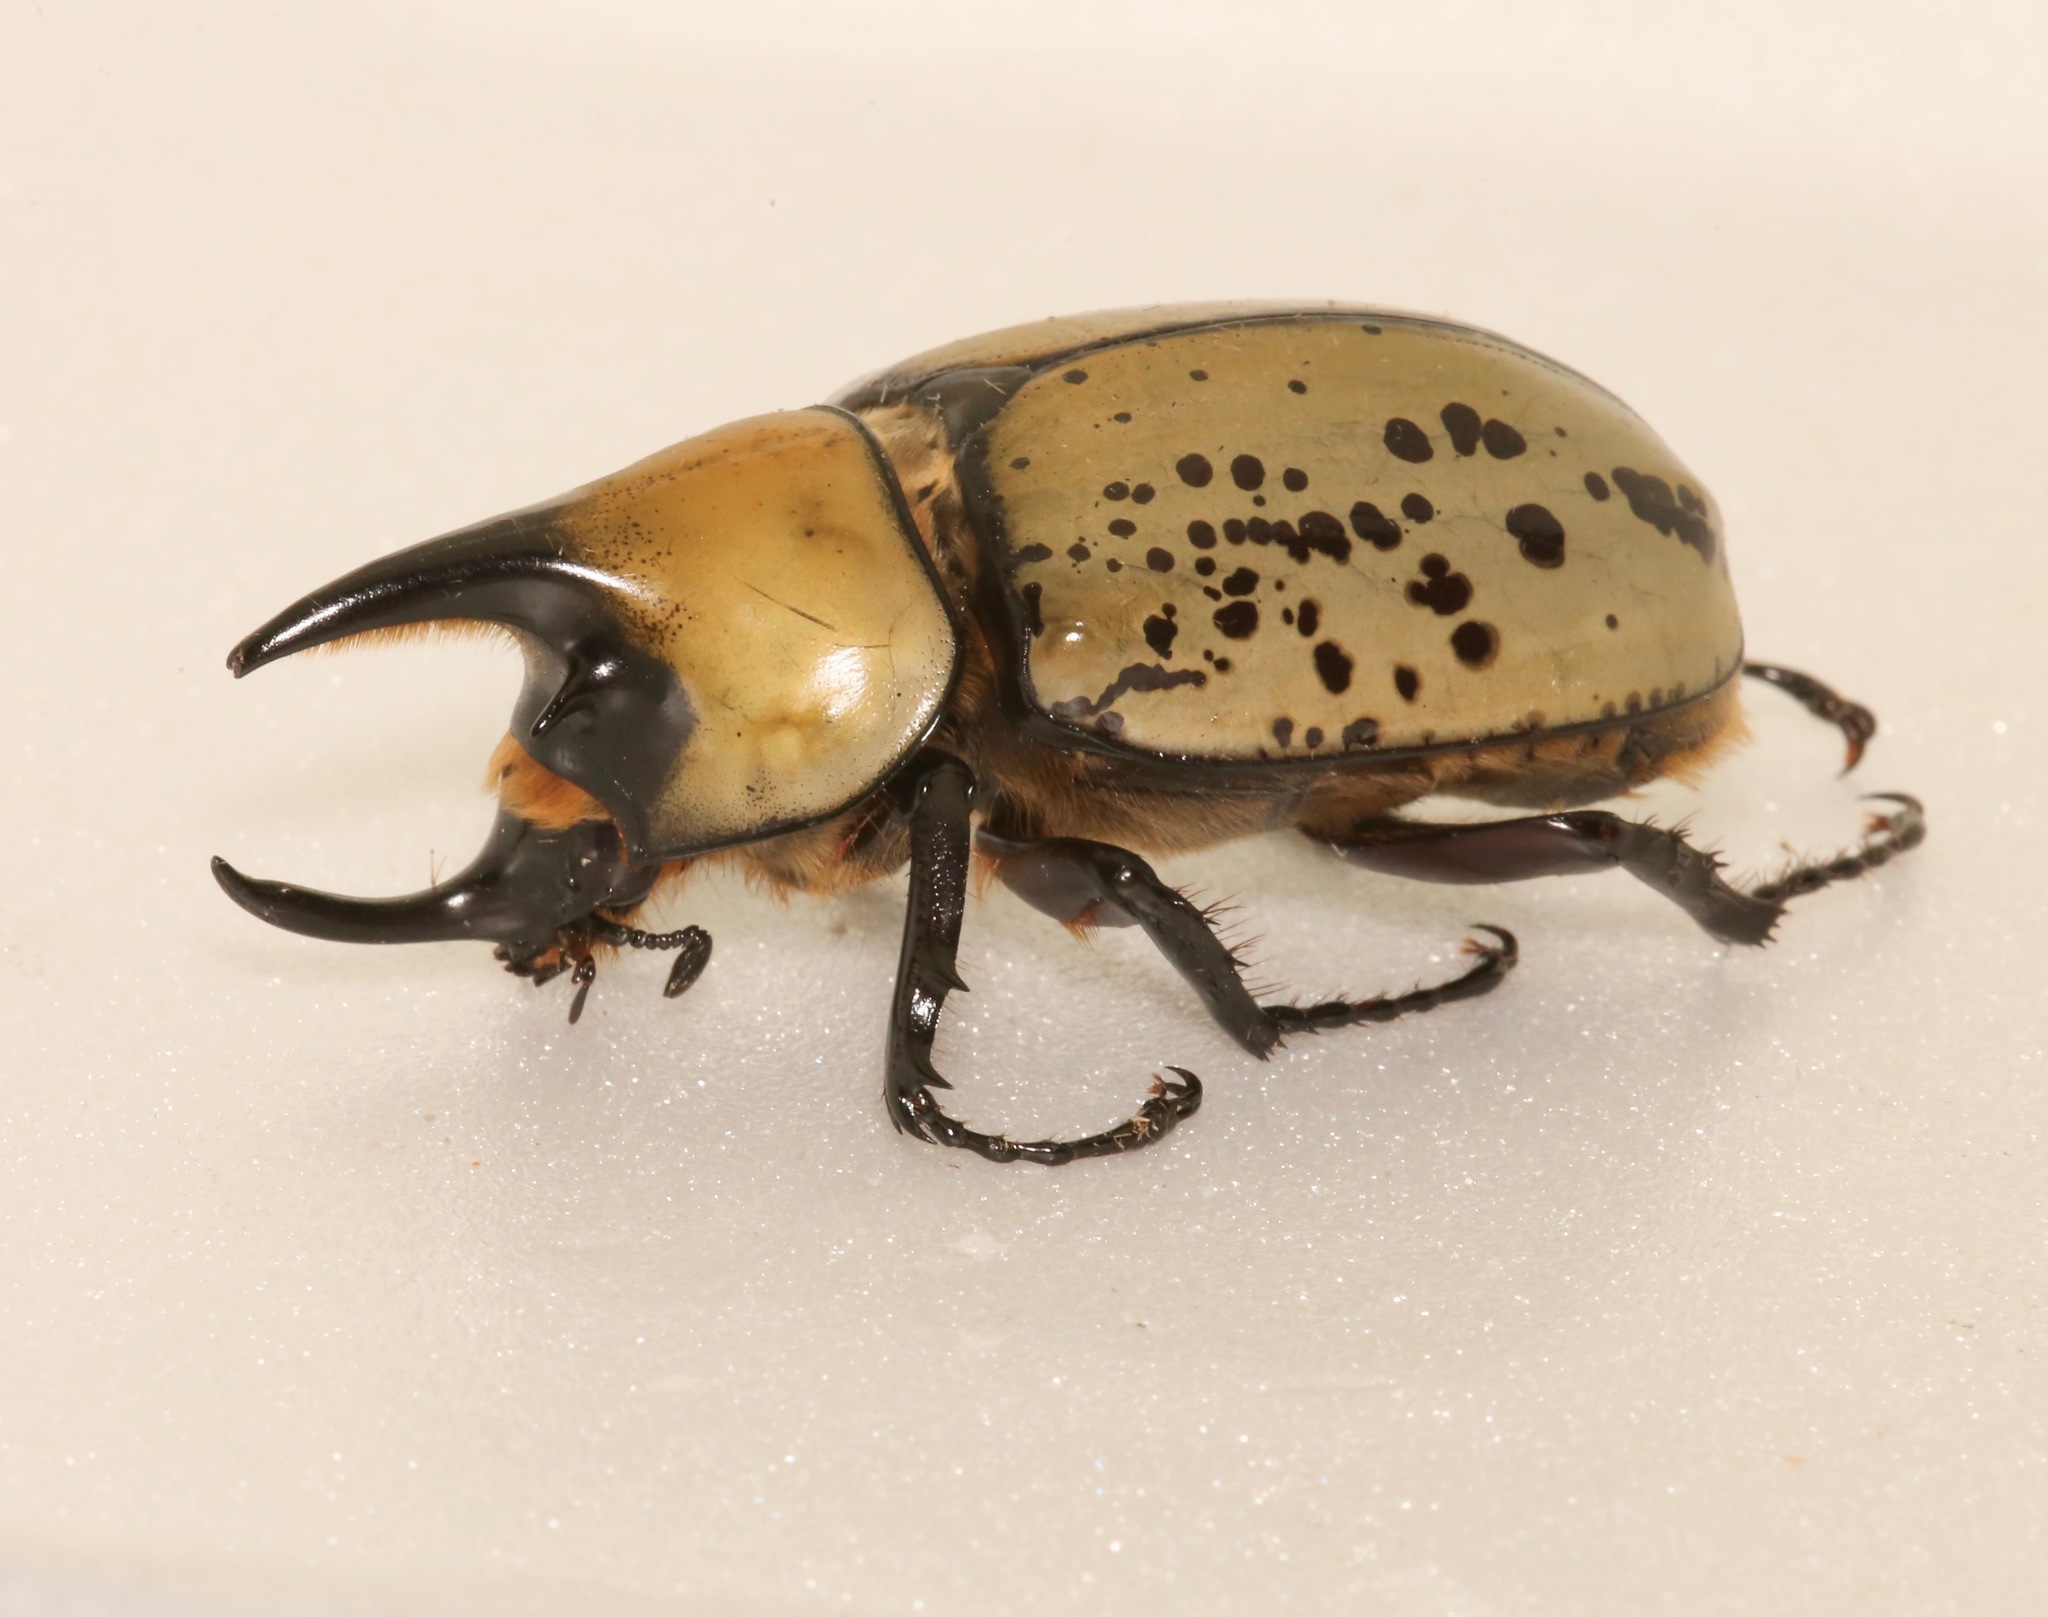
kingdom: Animalia
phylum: Arthropoda
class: Insecta
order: Coleoptera
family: Scarabaeidae
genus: Dynastes
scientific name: Dynastes tityus
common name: Eastern hercules beetle
